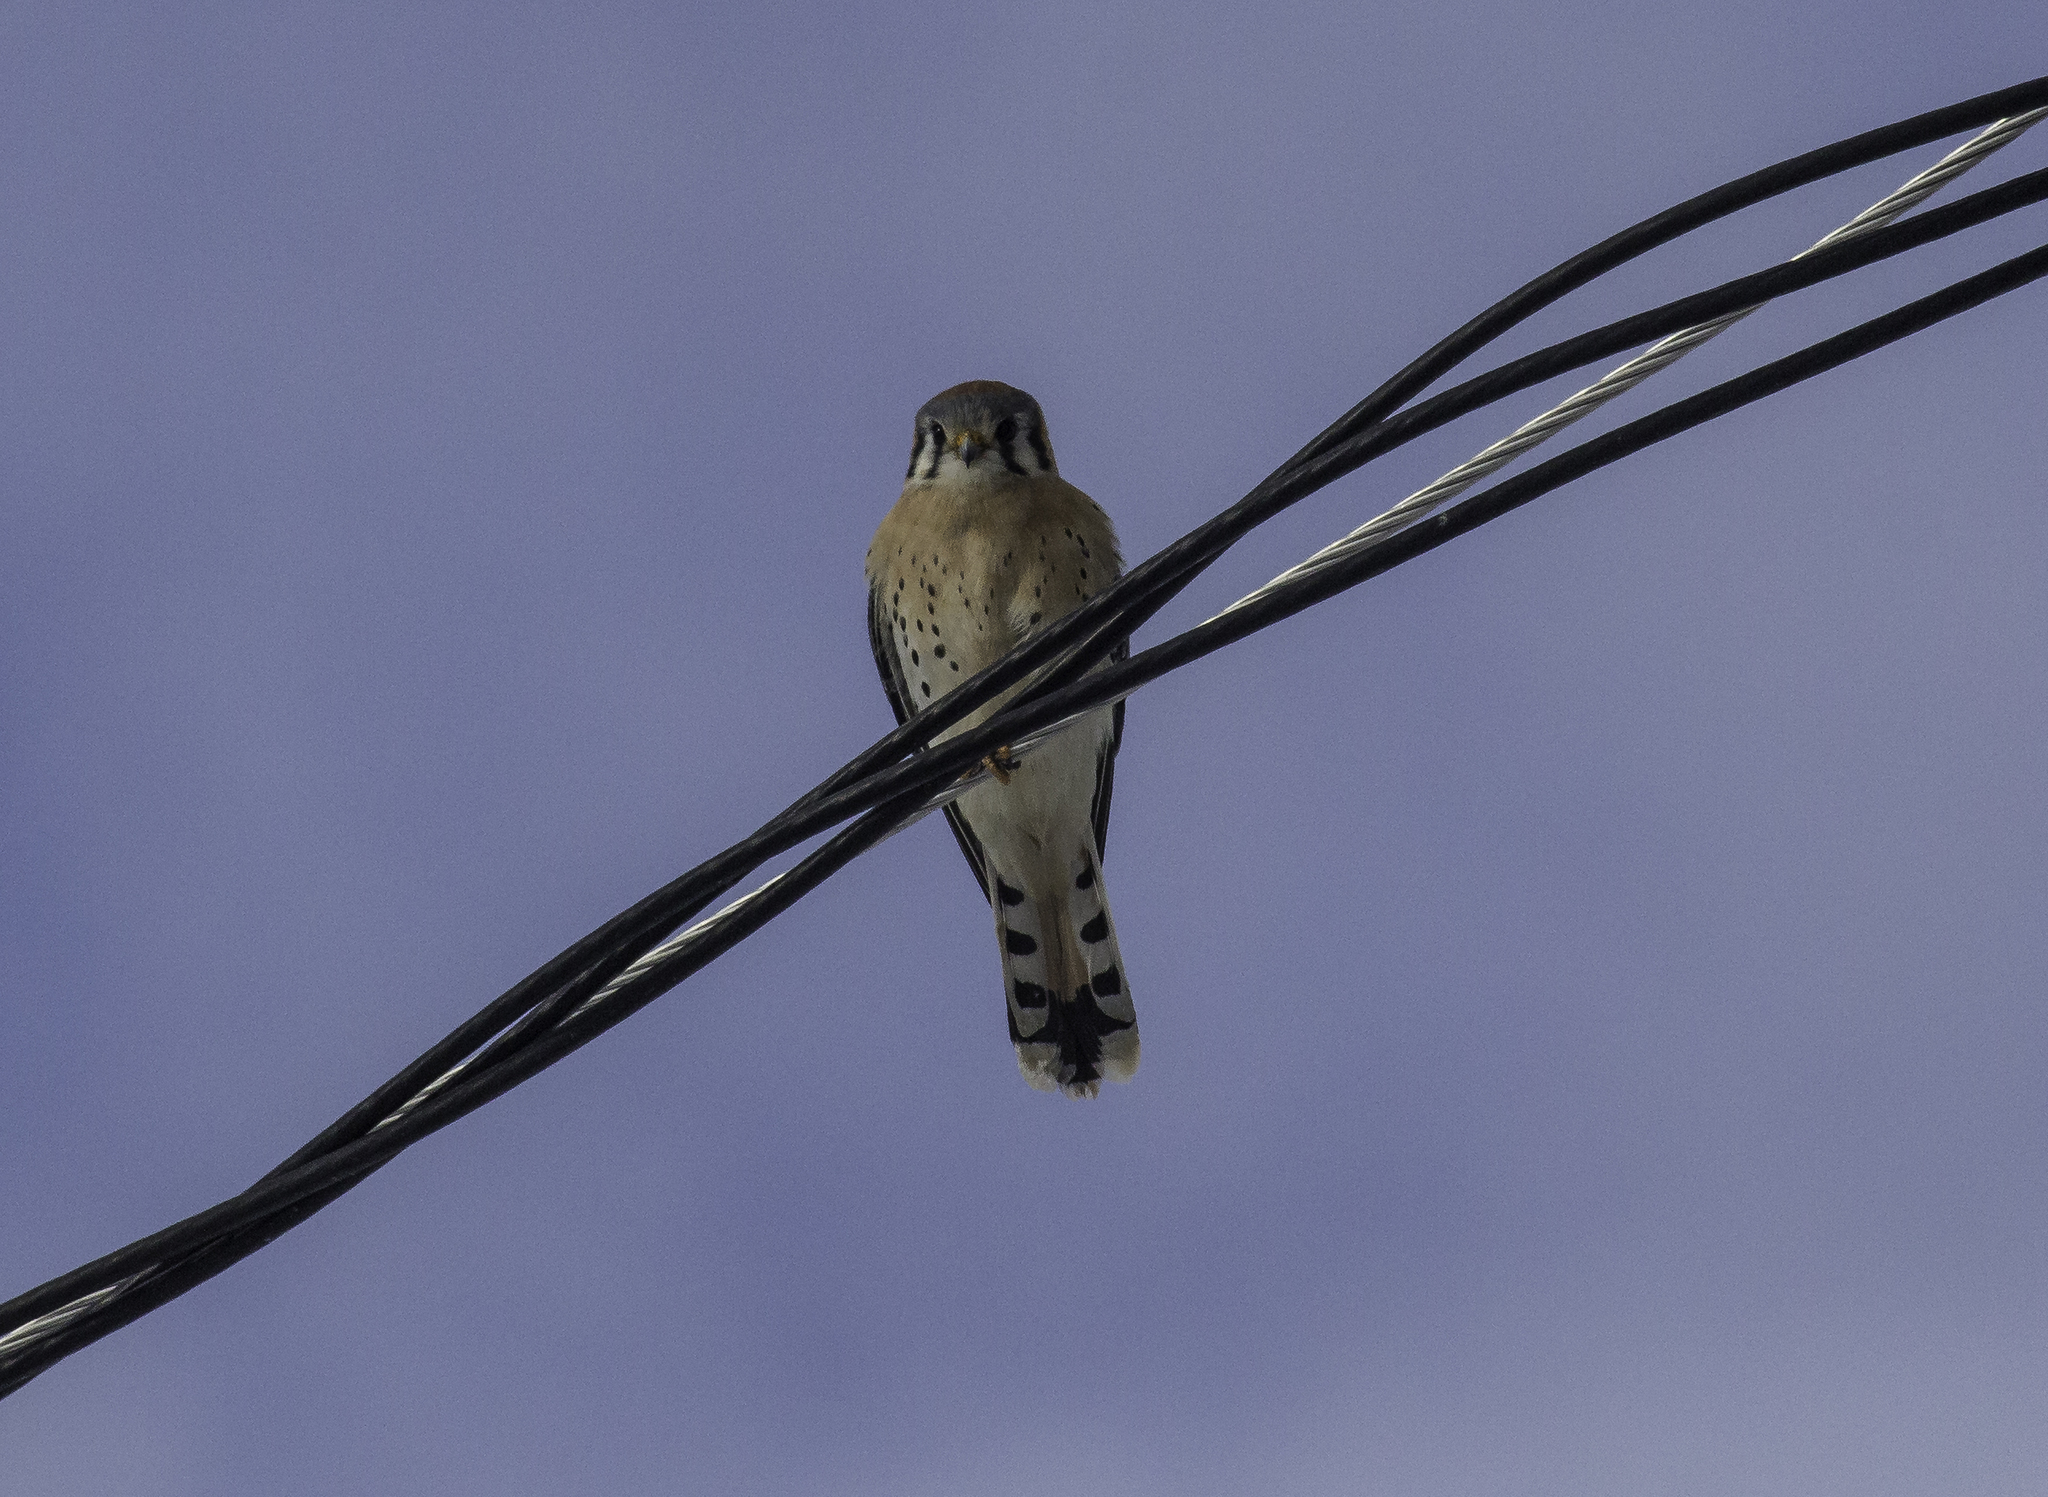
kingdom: Animalia
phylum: Chordata
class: Aves
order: Falconiformes
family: Falconidae
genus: Falco
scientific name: Falco sparverius
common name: American kestrel
